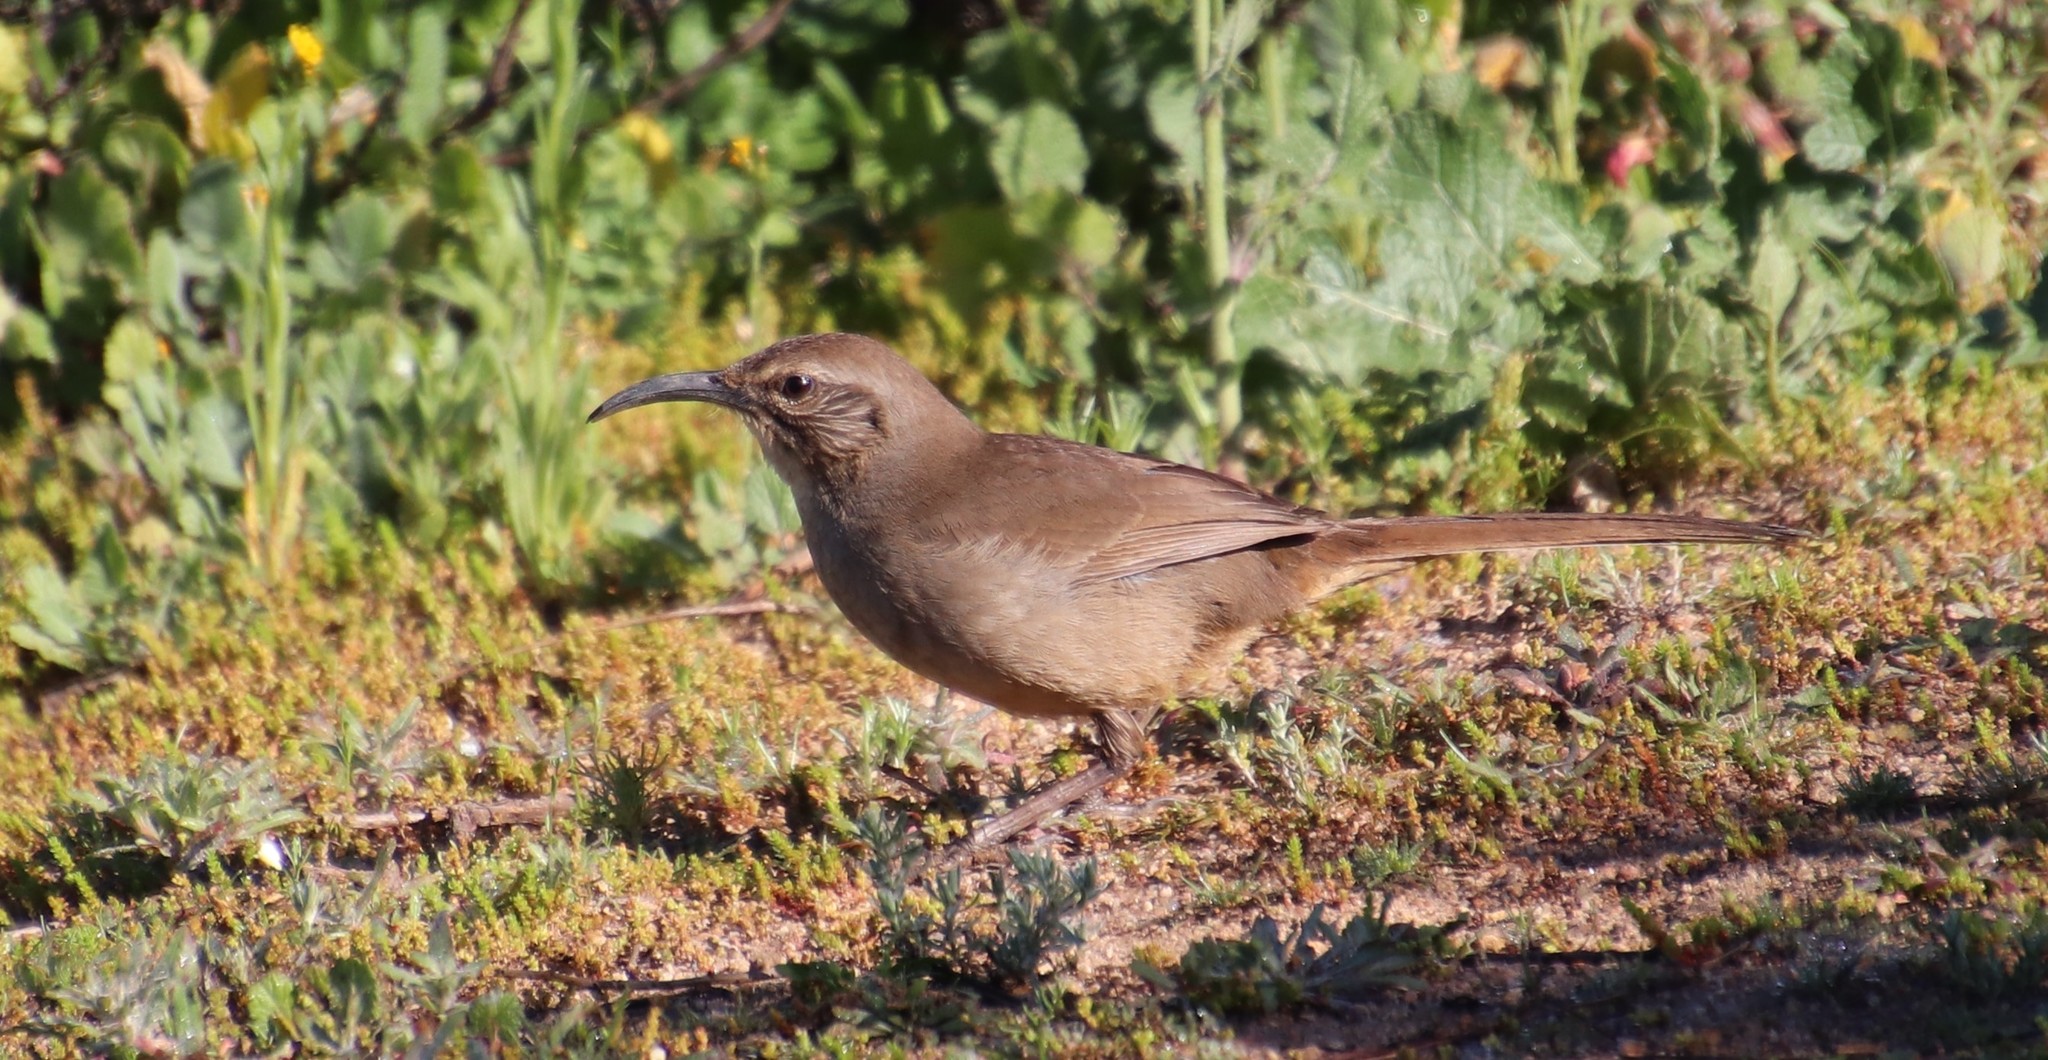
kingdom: Animalia
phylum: Chordata
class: Aves
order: Passeriformes
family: Mimidae
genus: Toxostoma
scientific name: Toxostoma redivivum
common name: California thrasher
